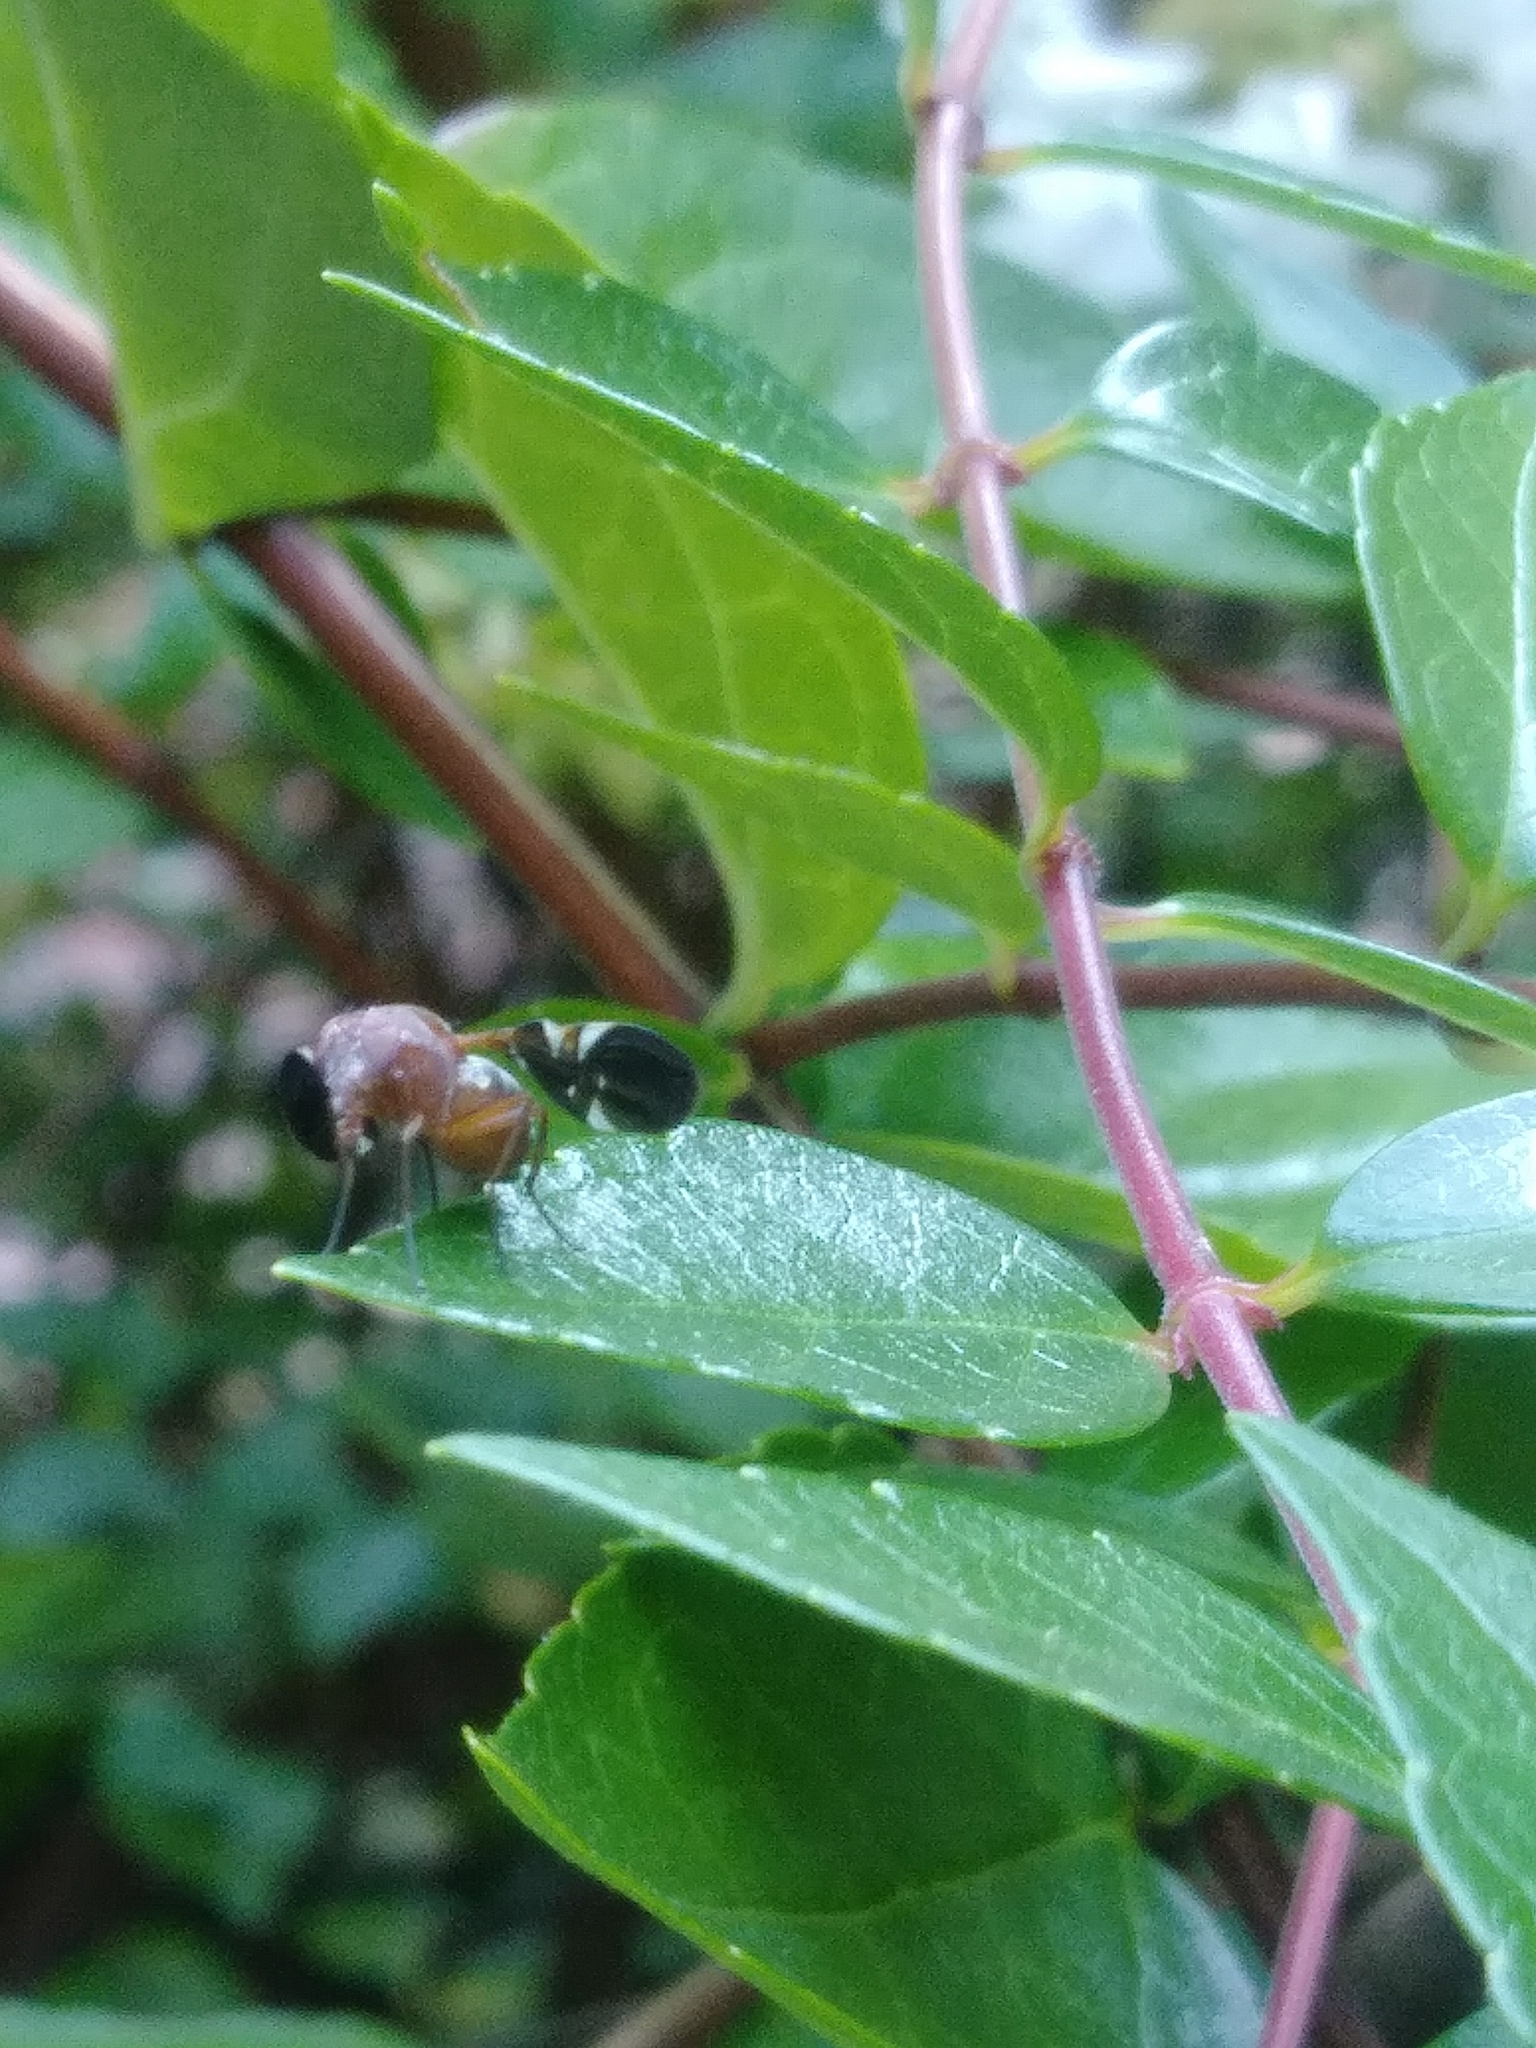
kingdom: Animalia
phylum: Arthropoda
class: Insecta
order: Diptera
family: Ulidiidae
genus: Delphinia
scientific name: Delphinia picta
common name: Common picture-winged fly
